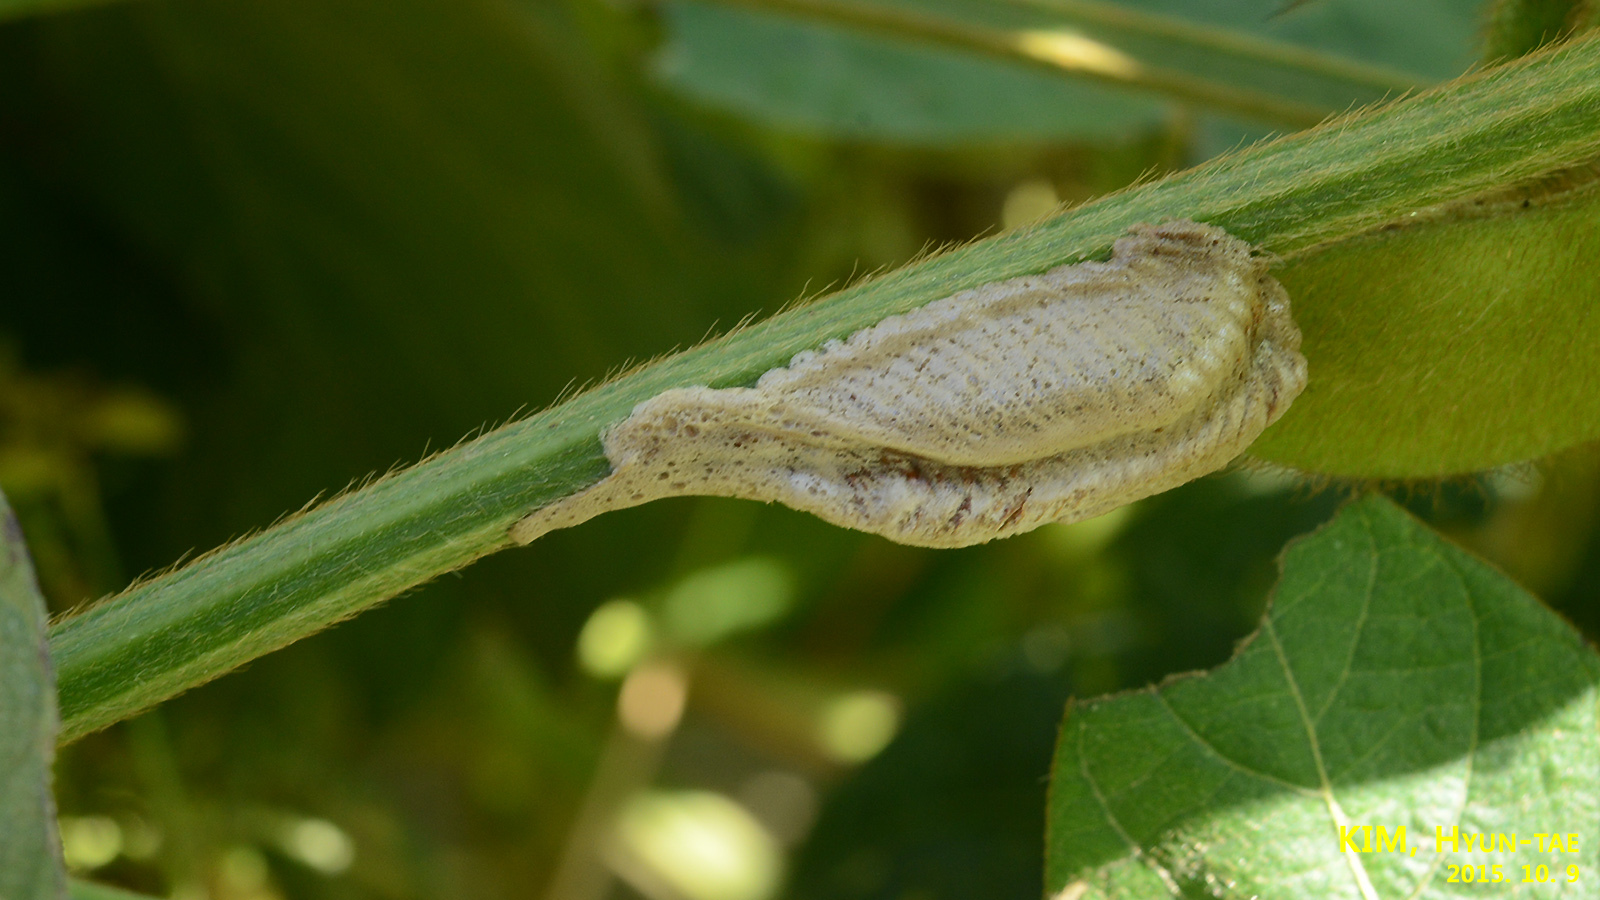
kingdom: Animalia
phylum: Arthropoda
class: Insecta
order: Mantodea
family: Mantidae
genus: Tenodera
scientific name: Tenodera angustipennis
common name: Asian mantis
